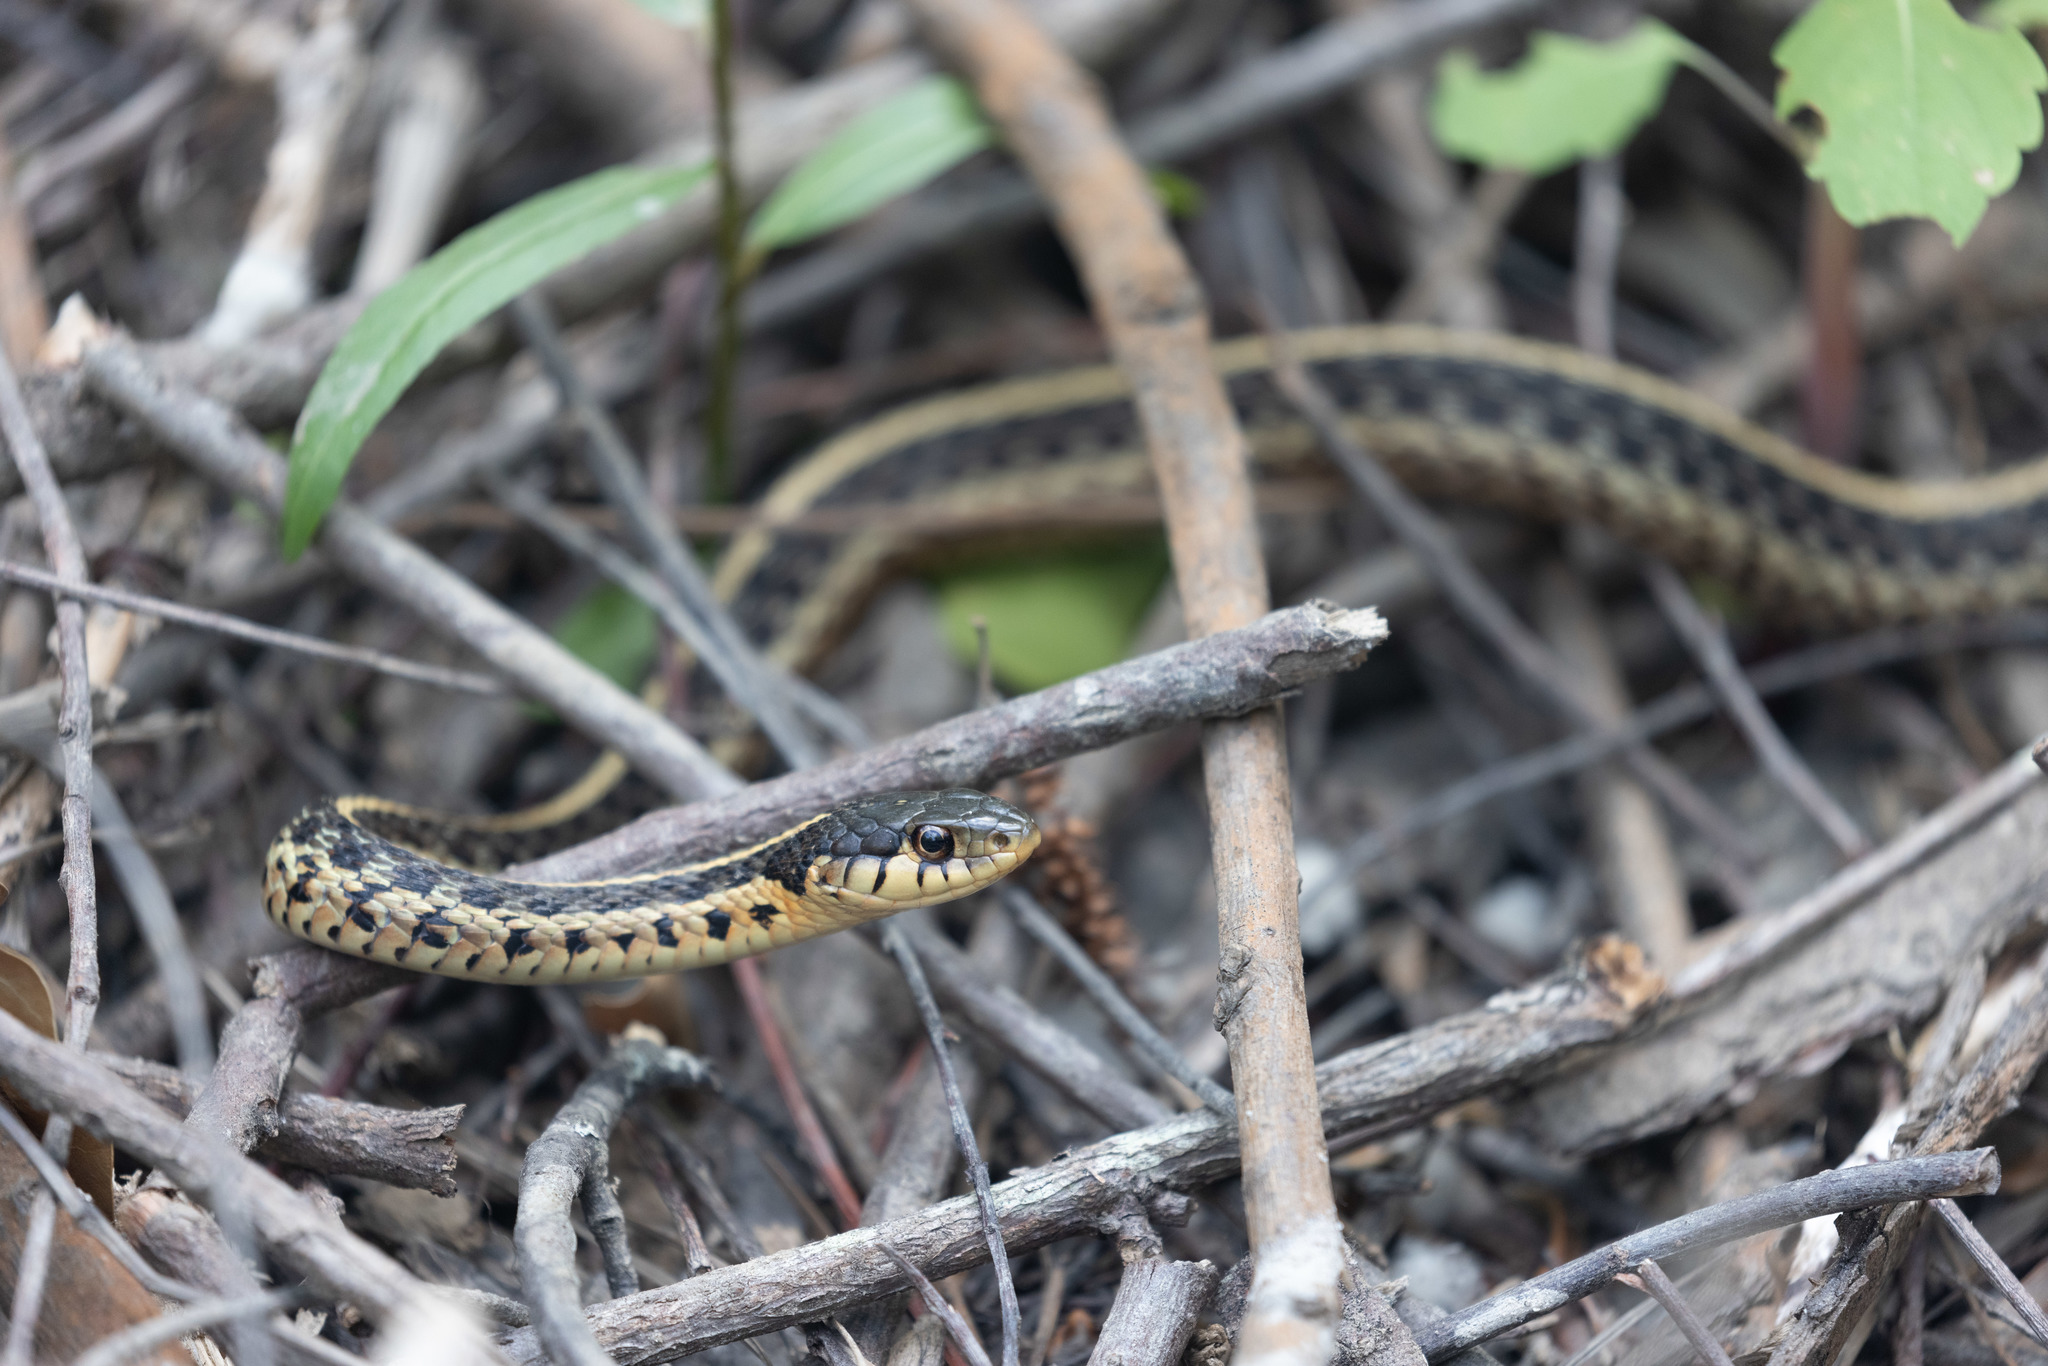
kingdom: Animalia
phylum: Chordata
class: Squamata
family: Colubridae
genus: Thamnophis
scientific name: Thamnophis sirtalis
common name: Common garter snake
